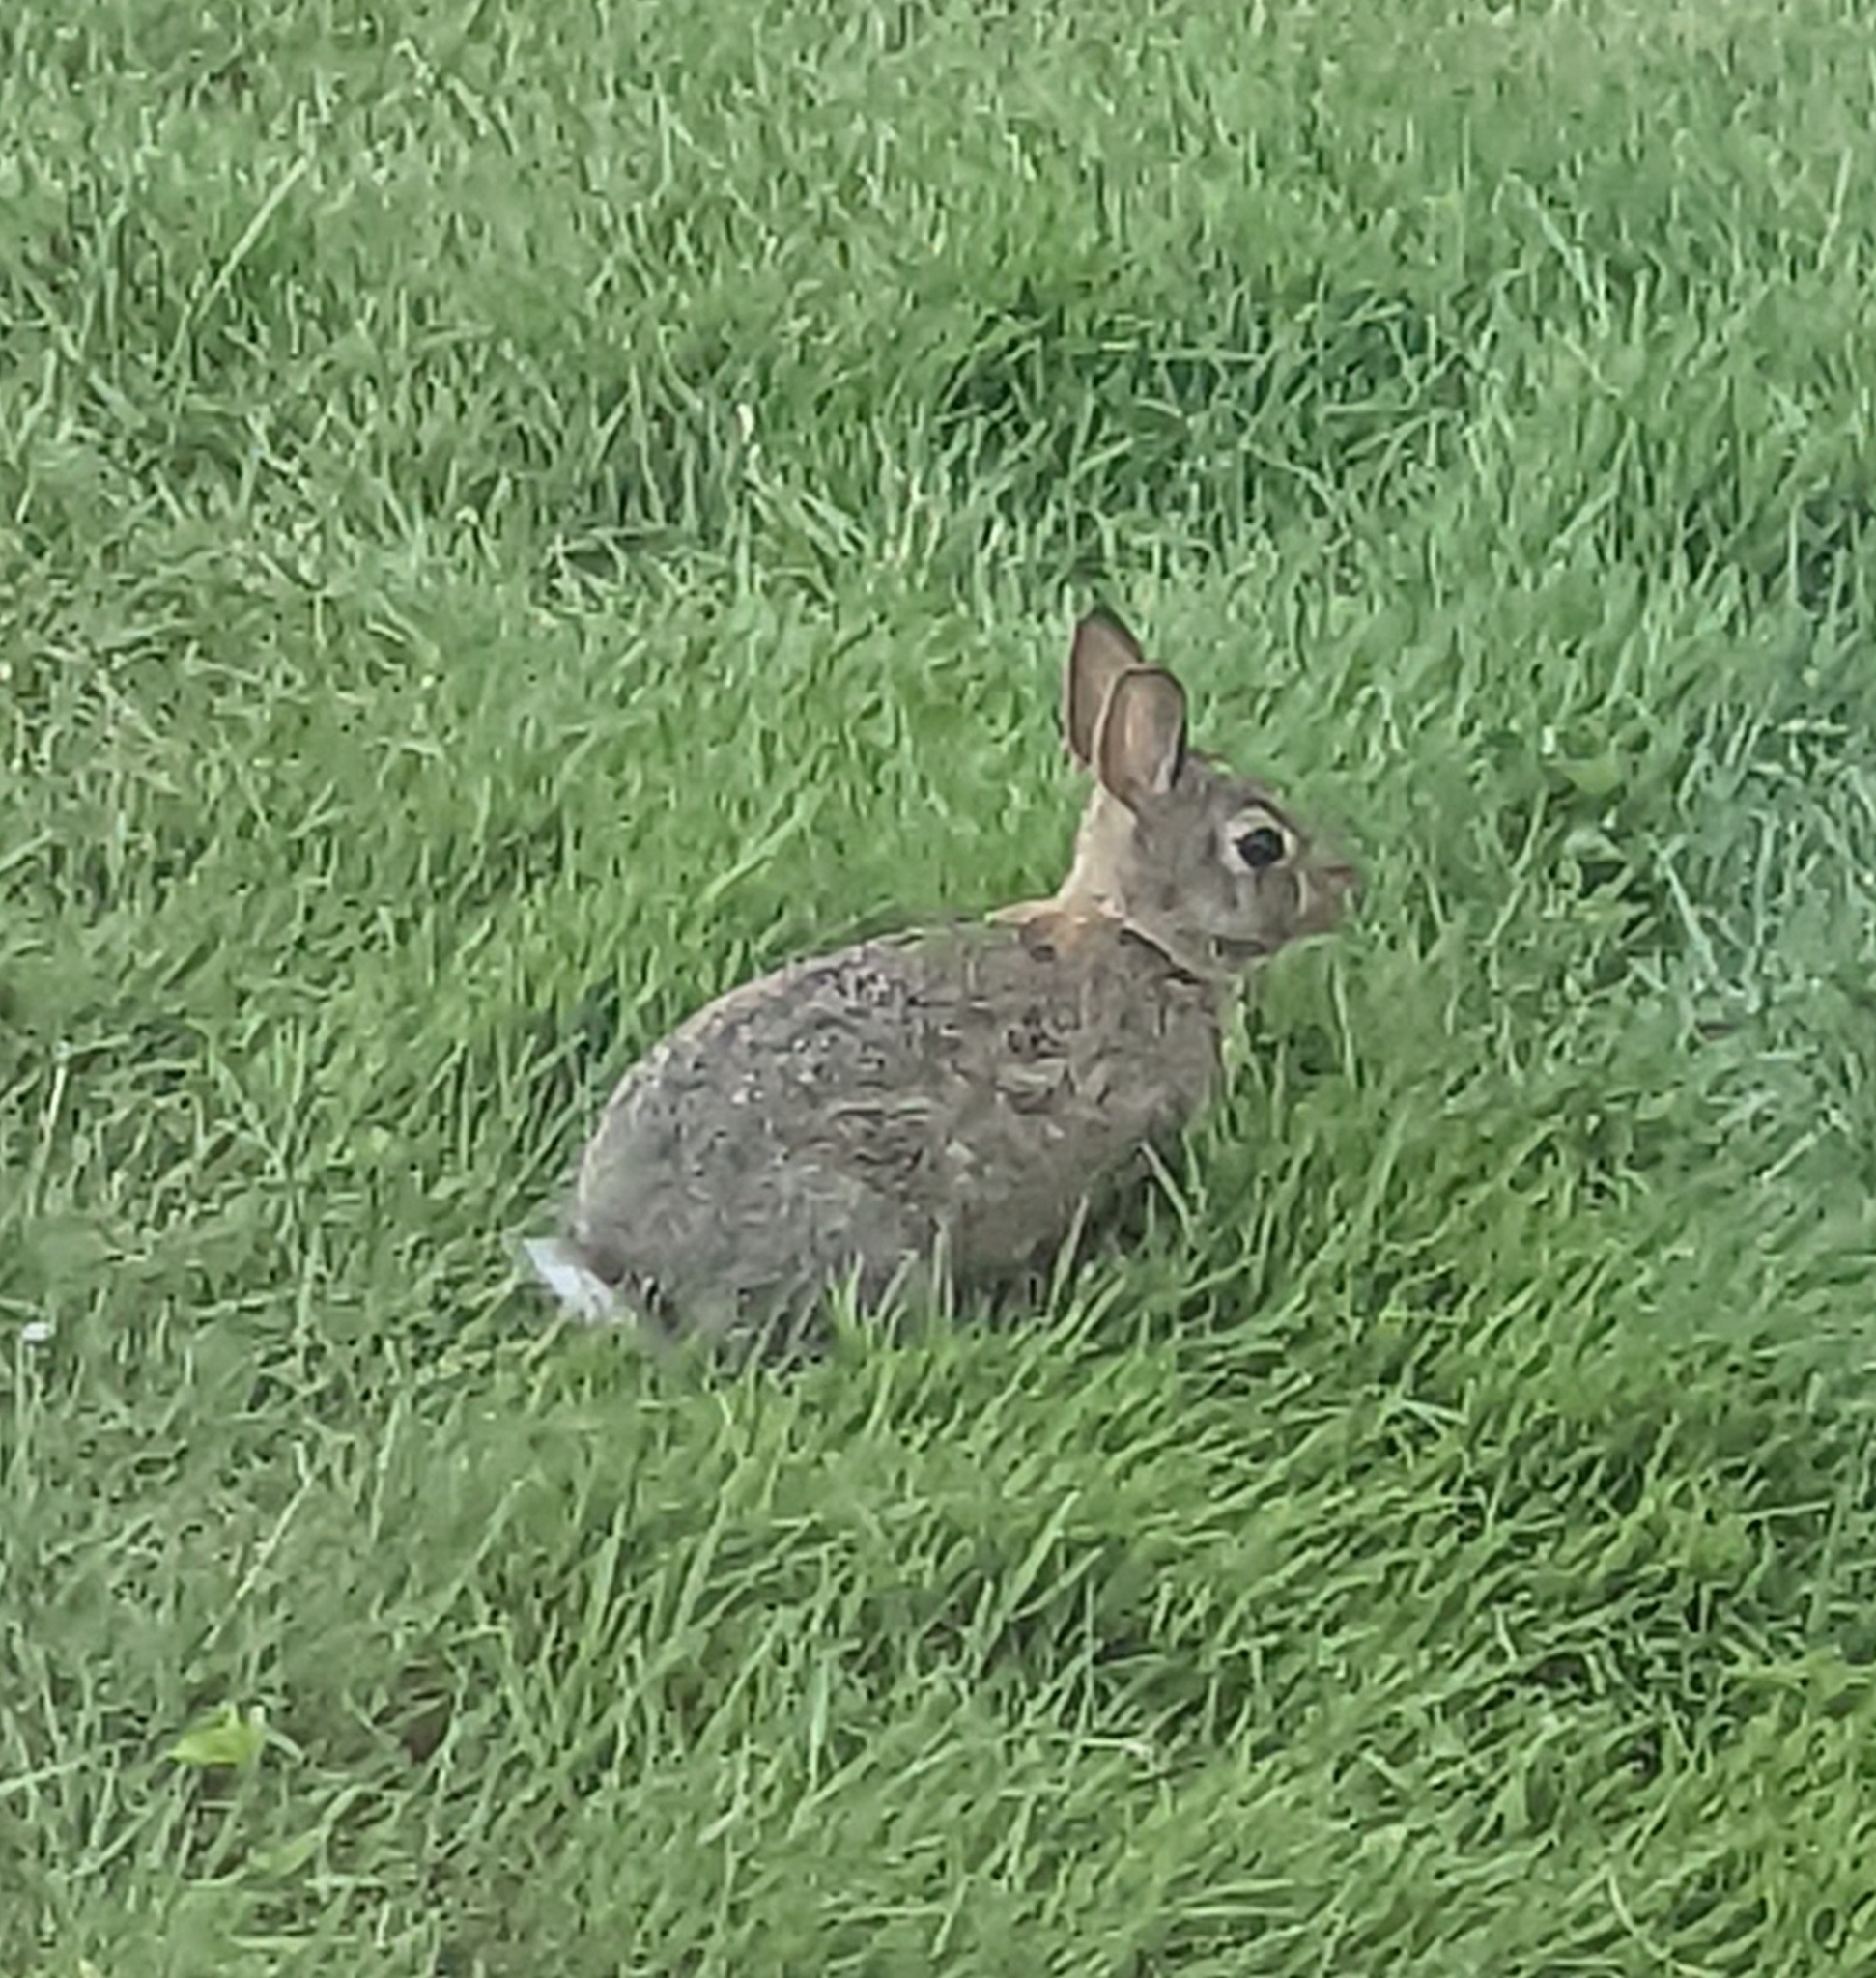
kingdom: Animalia
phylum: Chordata
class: Mammalia
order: Lagomorpha
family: Leporidae
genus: Sylvilagus
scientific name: Sylvilagus floridanus
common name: Eastern cottontail
